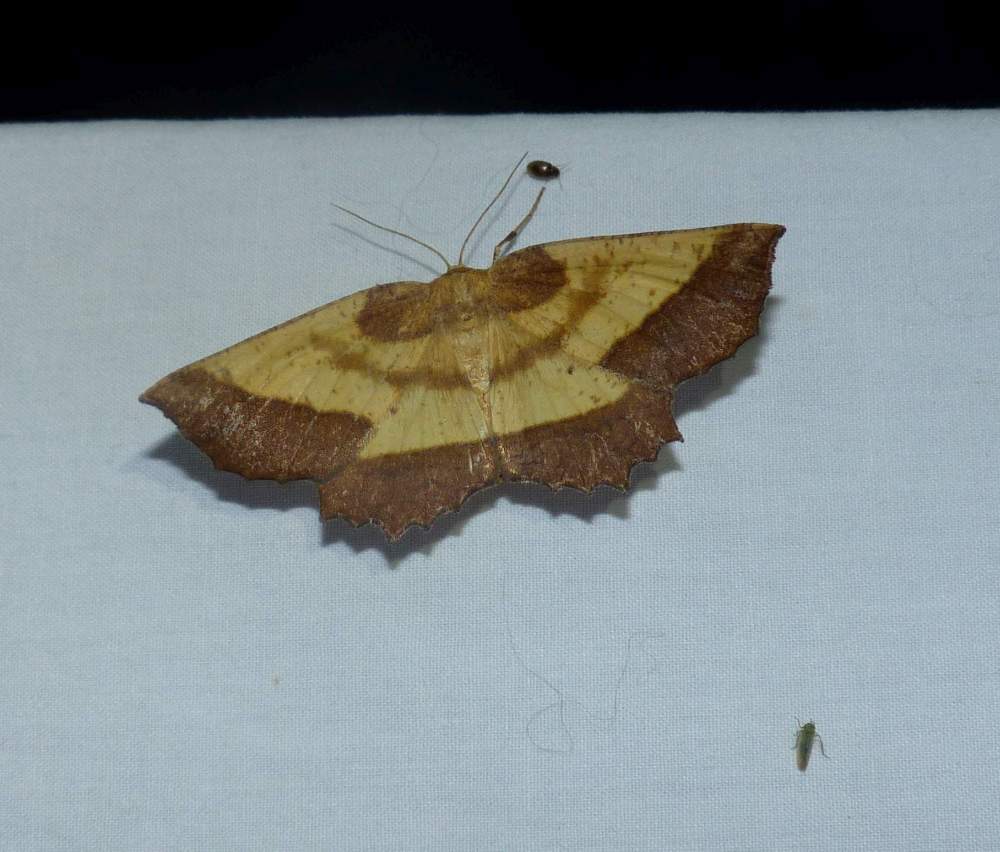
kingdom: Animalia
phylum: Arthropoda
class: Insecta
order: Lepidoptera
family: Geometridae
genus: Euchlaena
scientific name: Euchlaena serrata
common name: Saw wing
